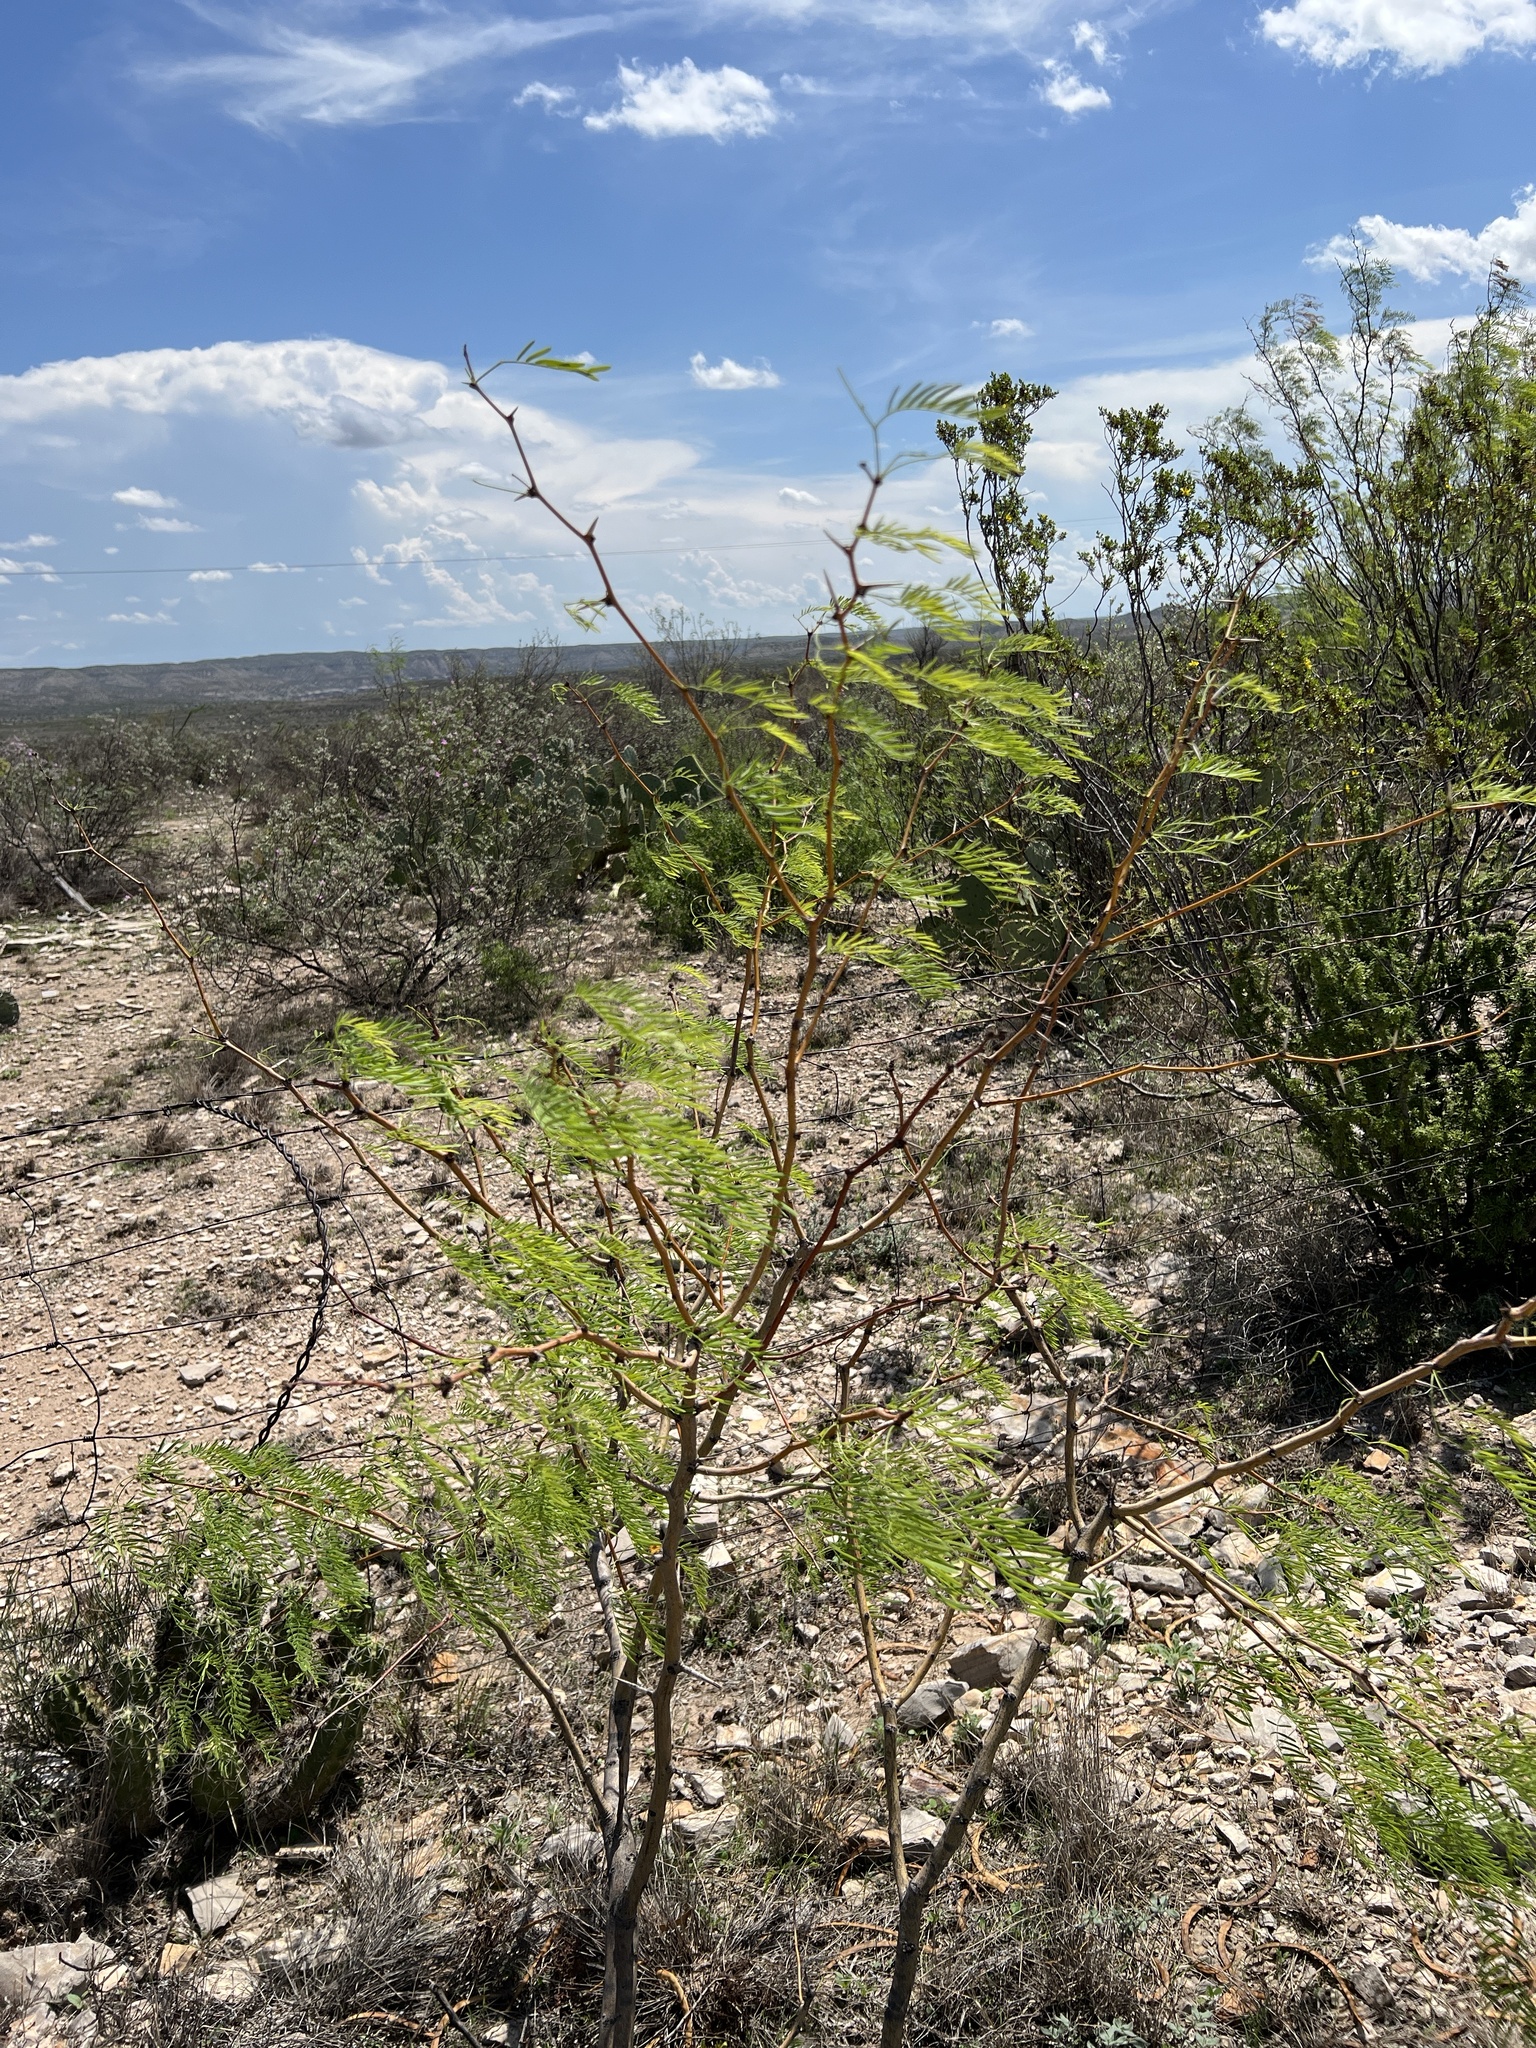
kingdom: Plantae
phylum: Tracheophyta
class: Magnoliopsida
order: Fabales
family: Fabaceae
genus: Prosopis
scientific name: Prosopis glandulosa
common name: Honey mesquite
